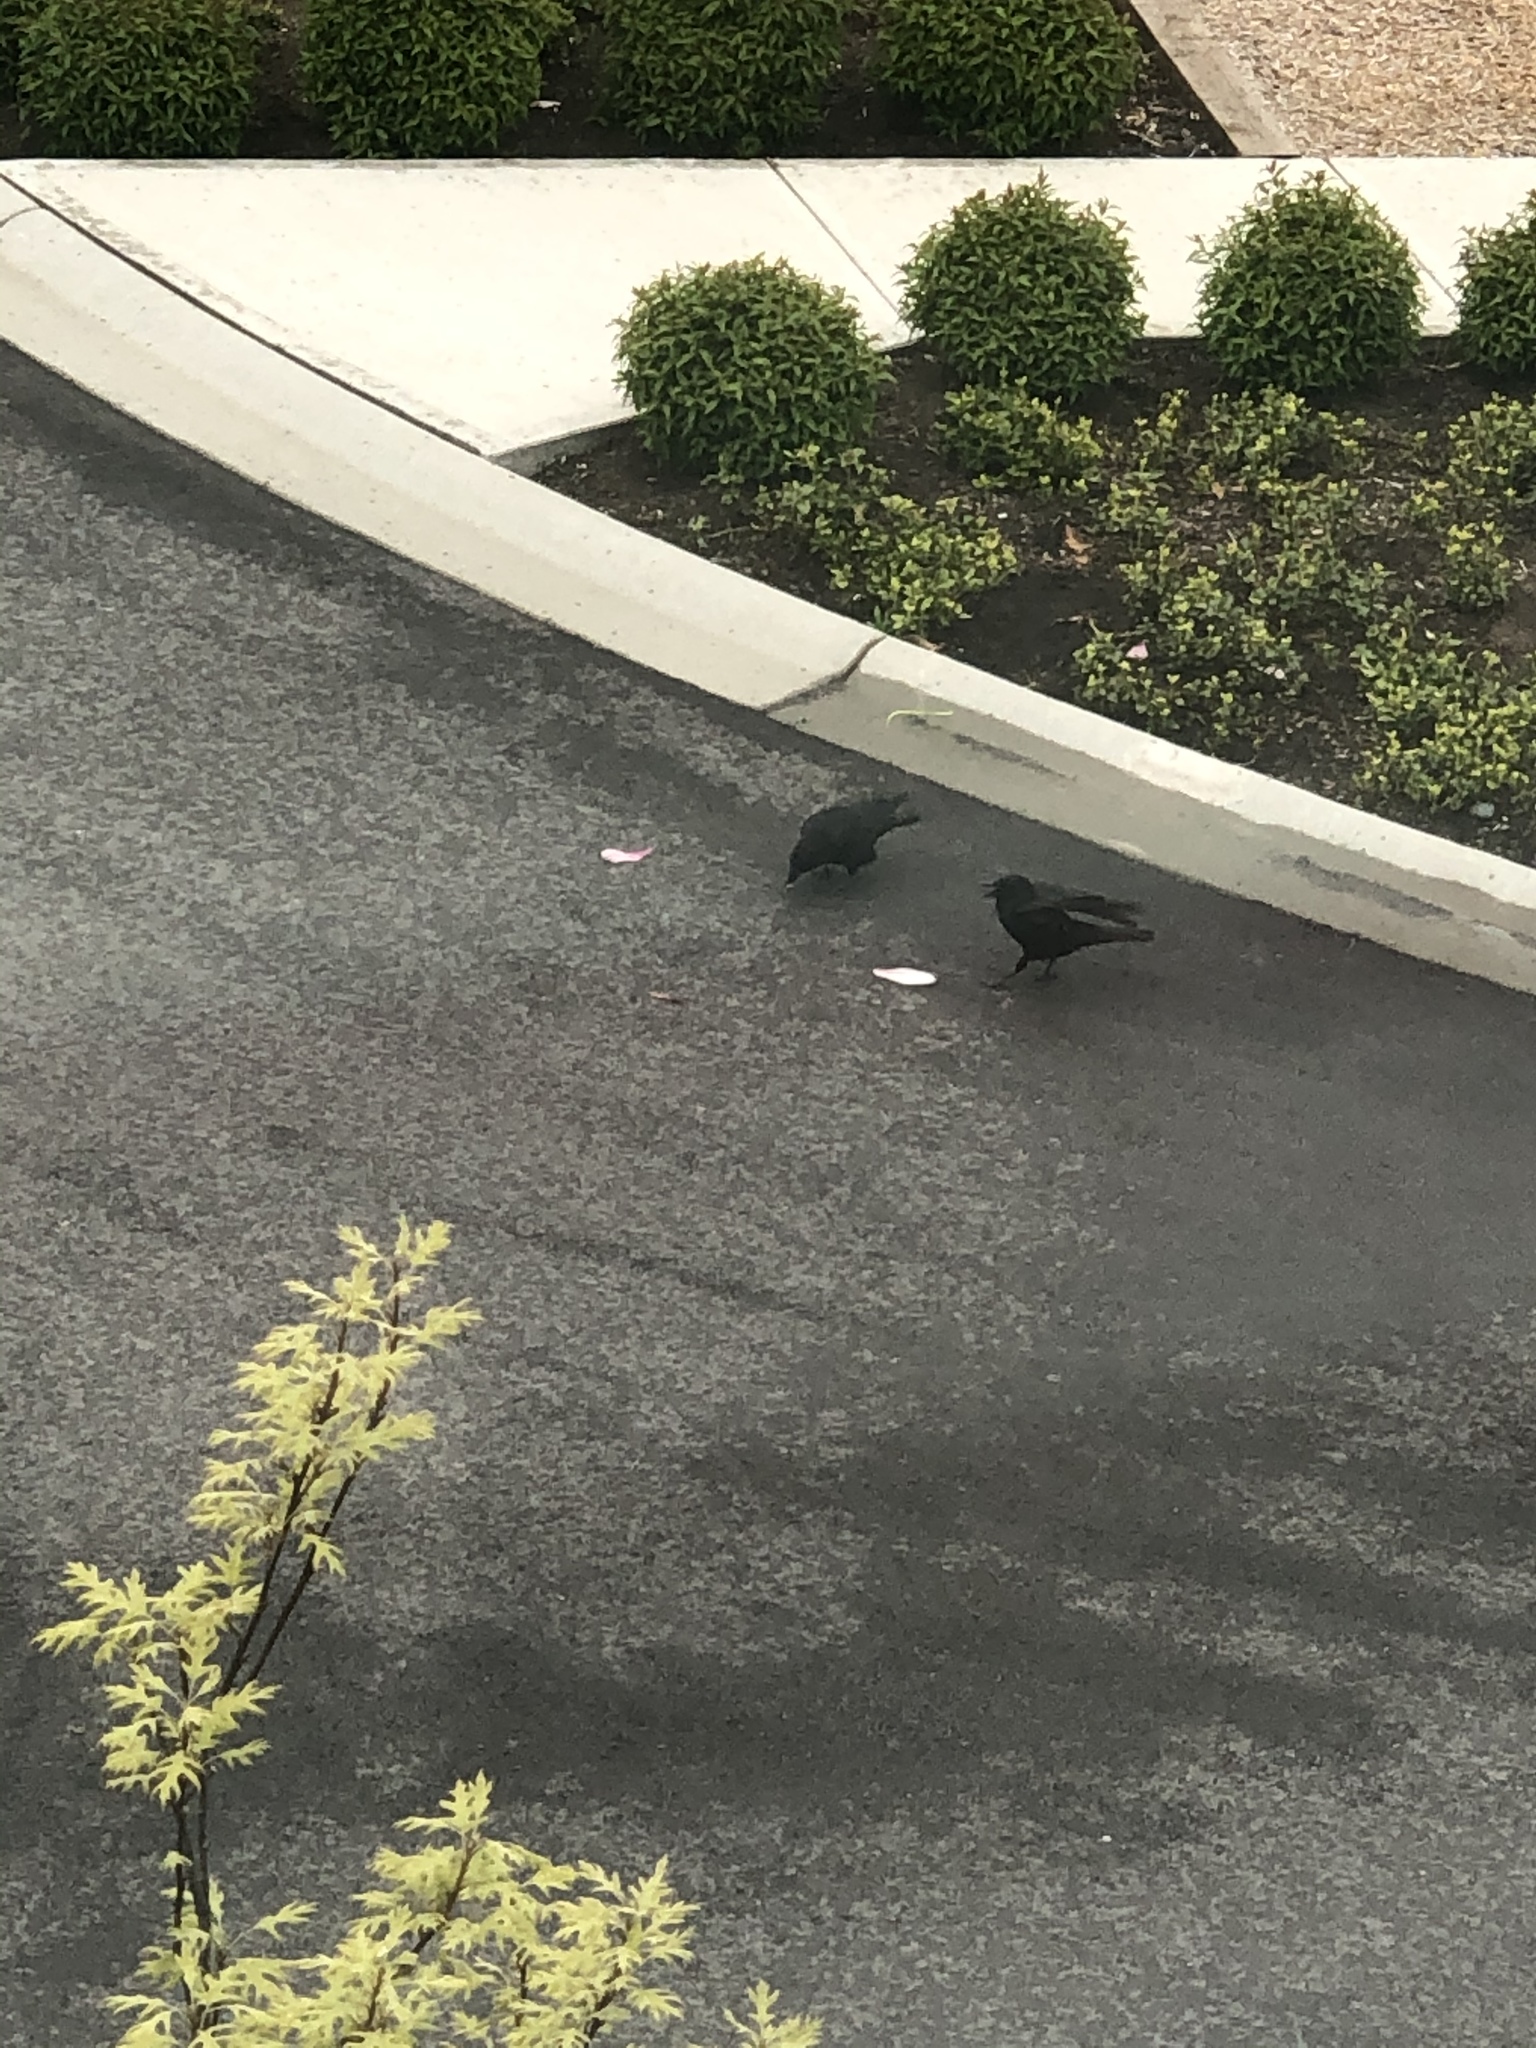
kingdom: Animalia
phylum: Chordata
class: Aves
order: Passeriformes
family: Corvidae
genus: Corvus
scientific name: Corvus brachyrhynchos
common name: American crow
